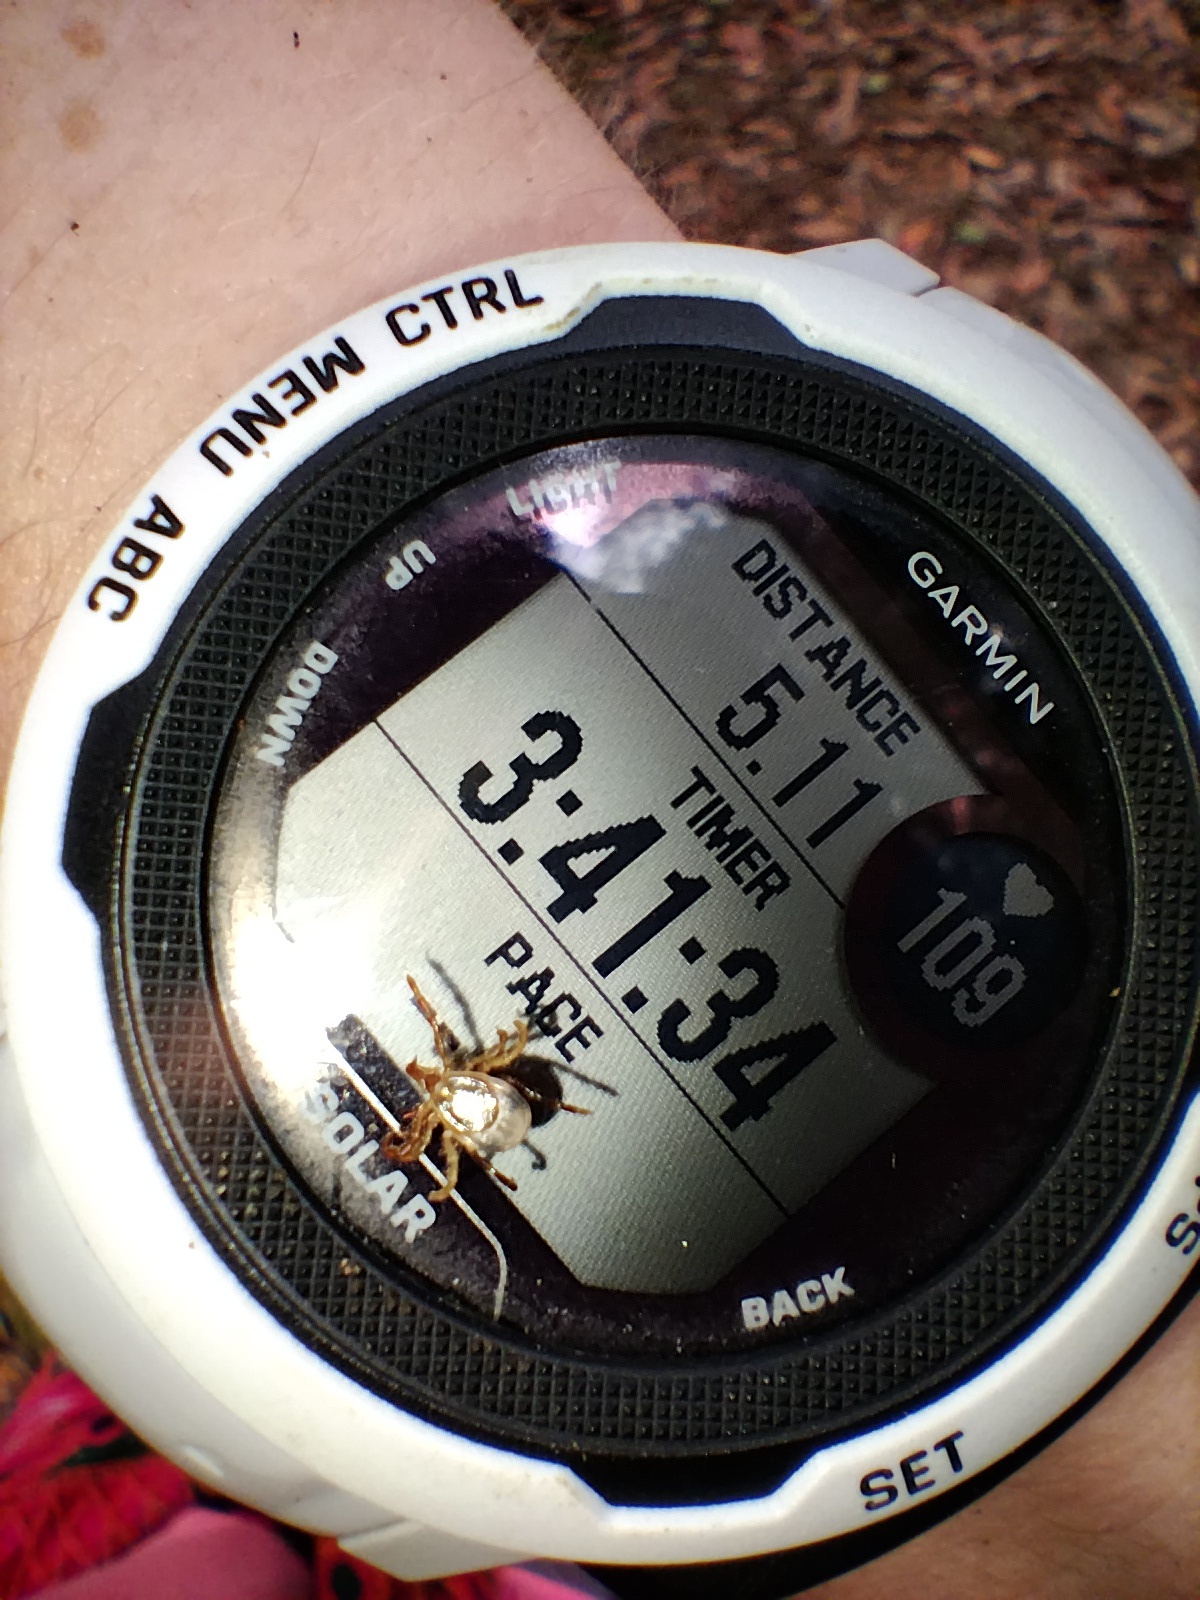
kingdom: Animalia
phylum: Arthropoda
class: Arachnida
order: Ixodida
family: Ixodidae
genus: Ixodes
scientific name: Ixodes holocyclus
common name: Australian paralysis tick
